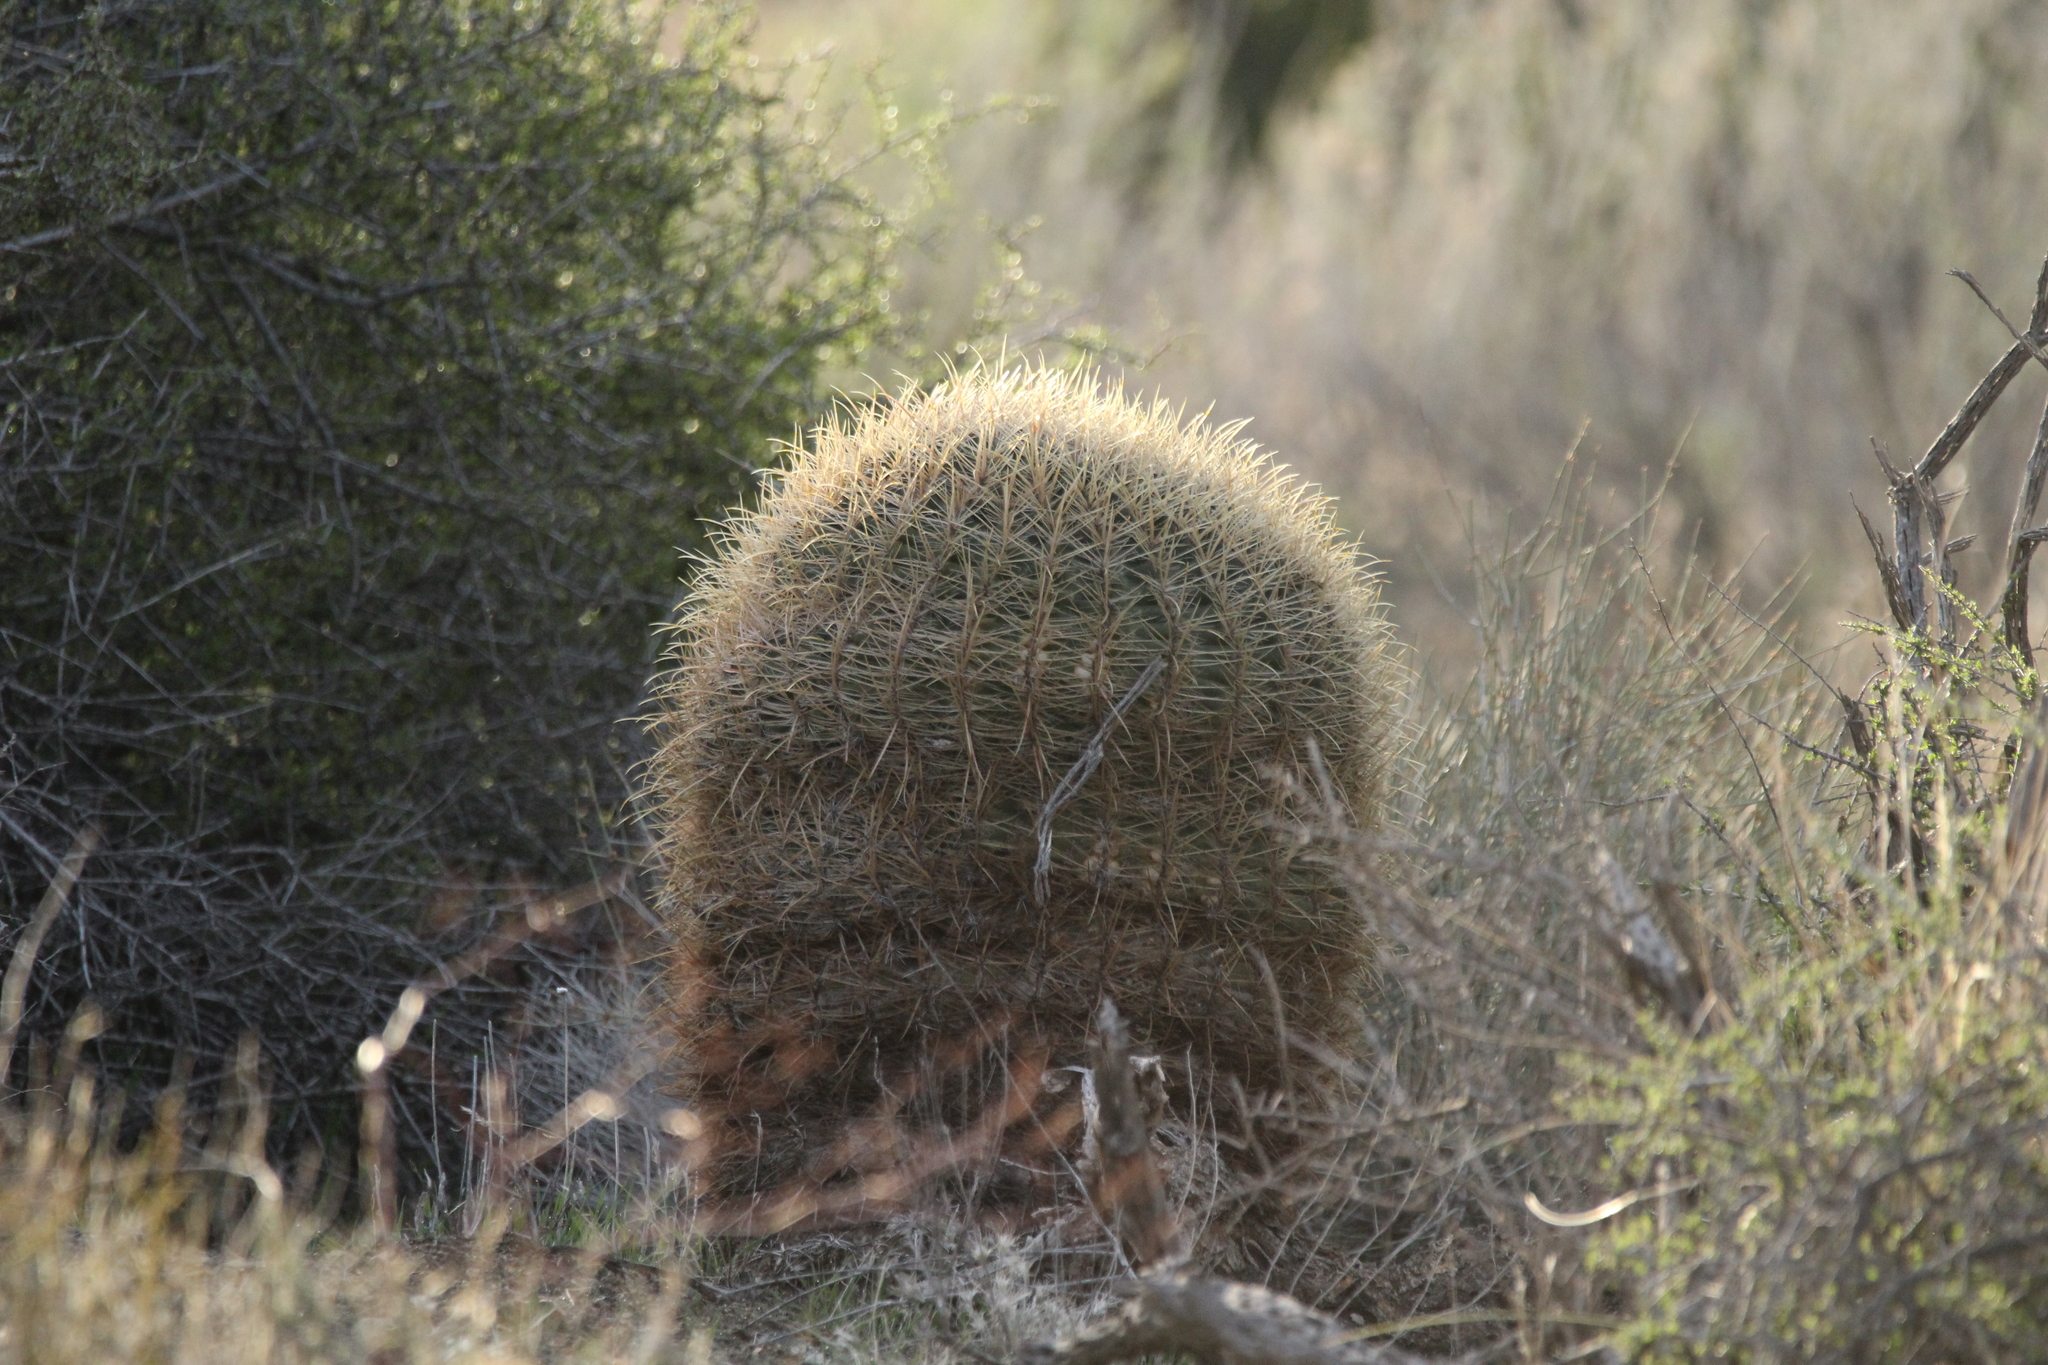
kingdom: Plantae
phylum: Tracheophyta
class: Magnoliopsida
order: Caryophyllales
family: Cactaceae
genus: Ferocactus
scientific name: Ferocactus cylindraceus
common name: California barrel cactus
